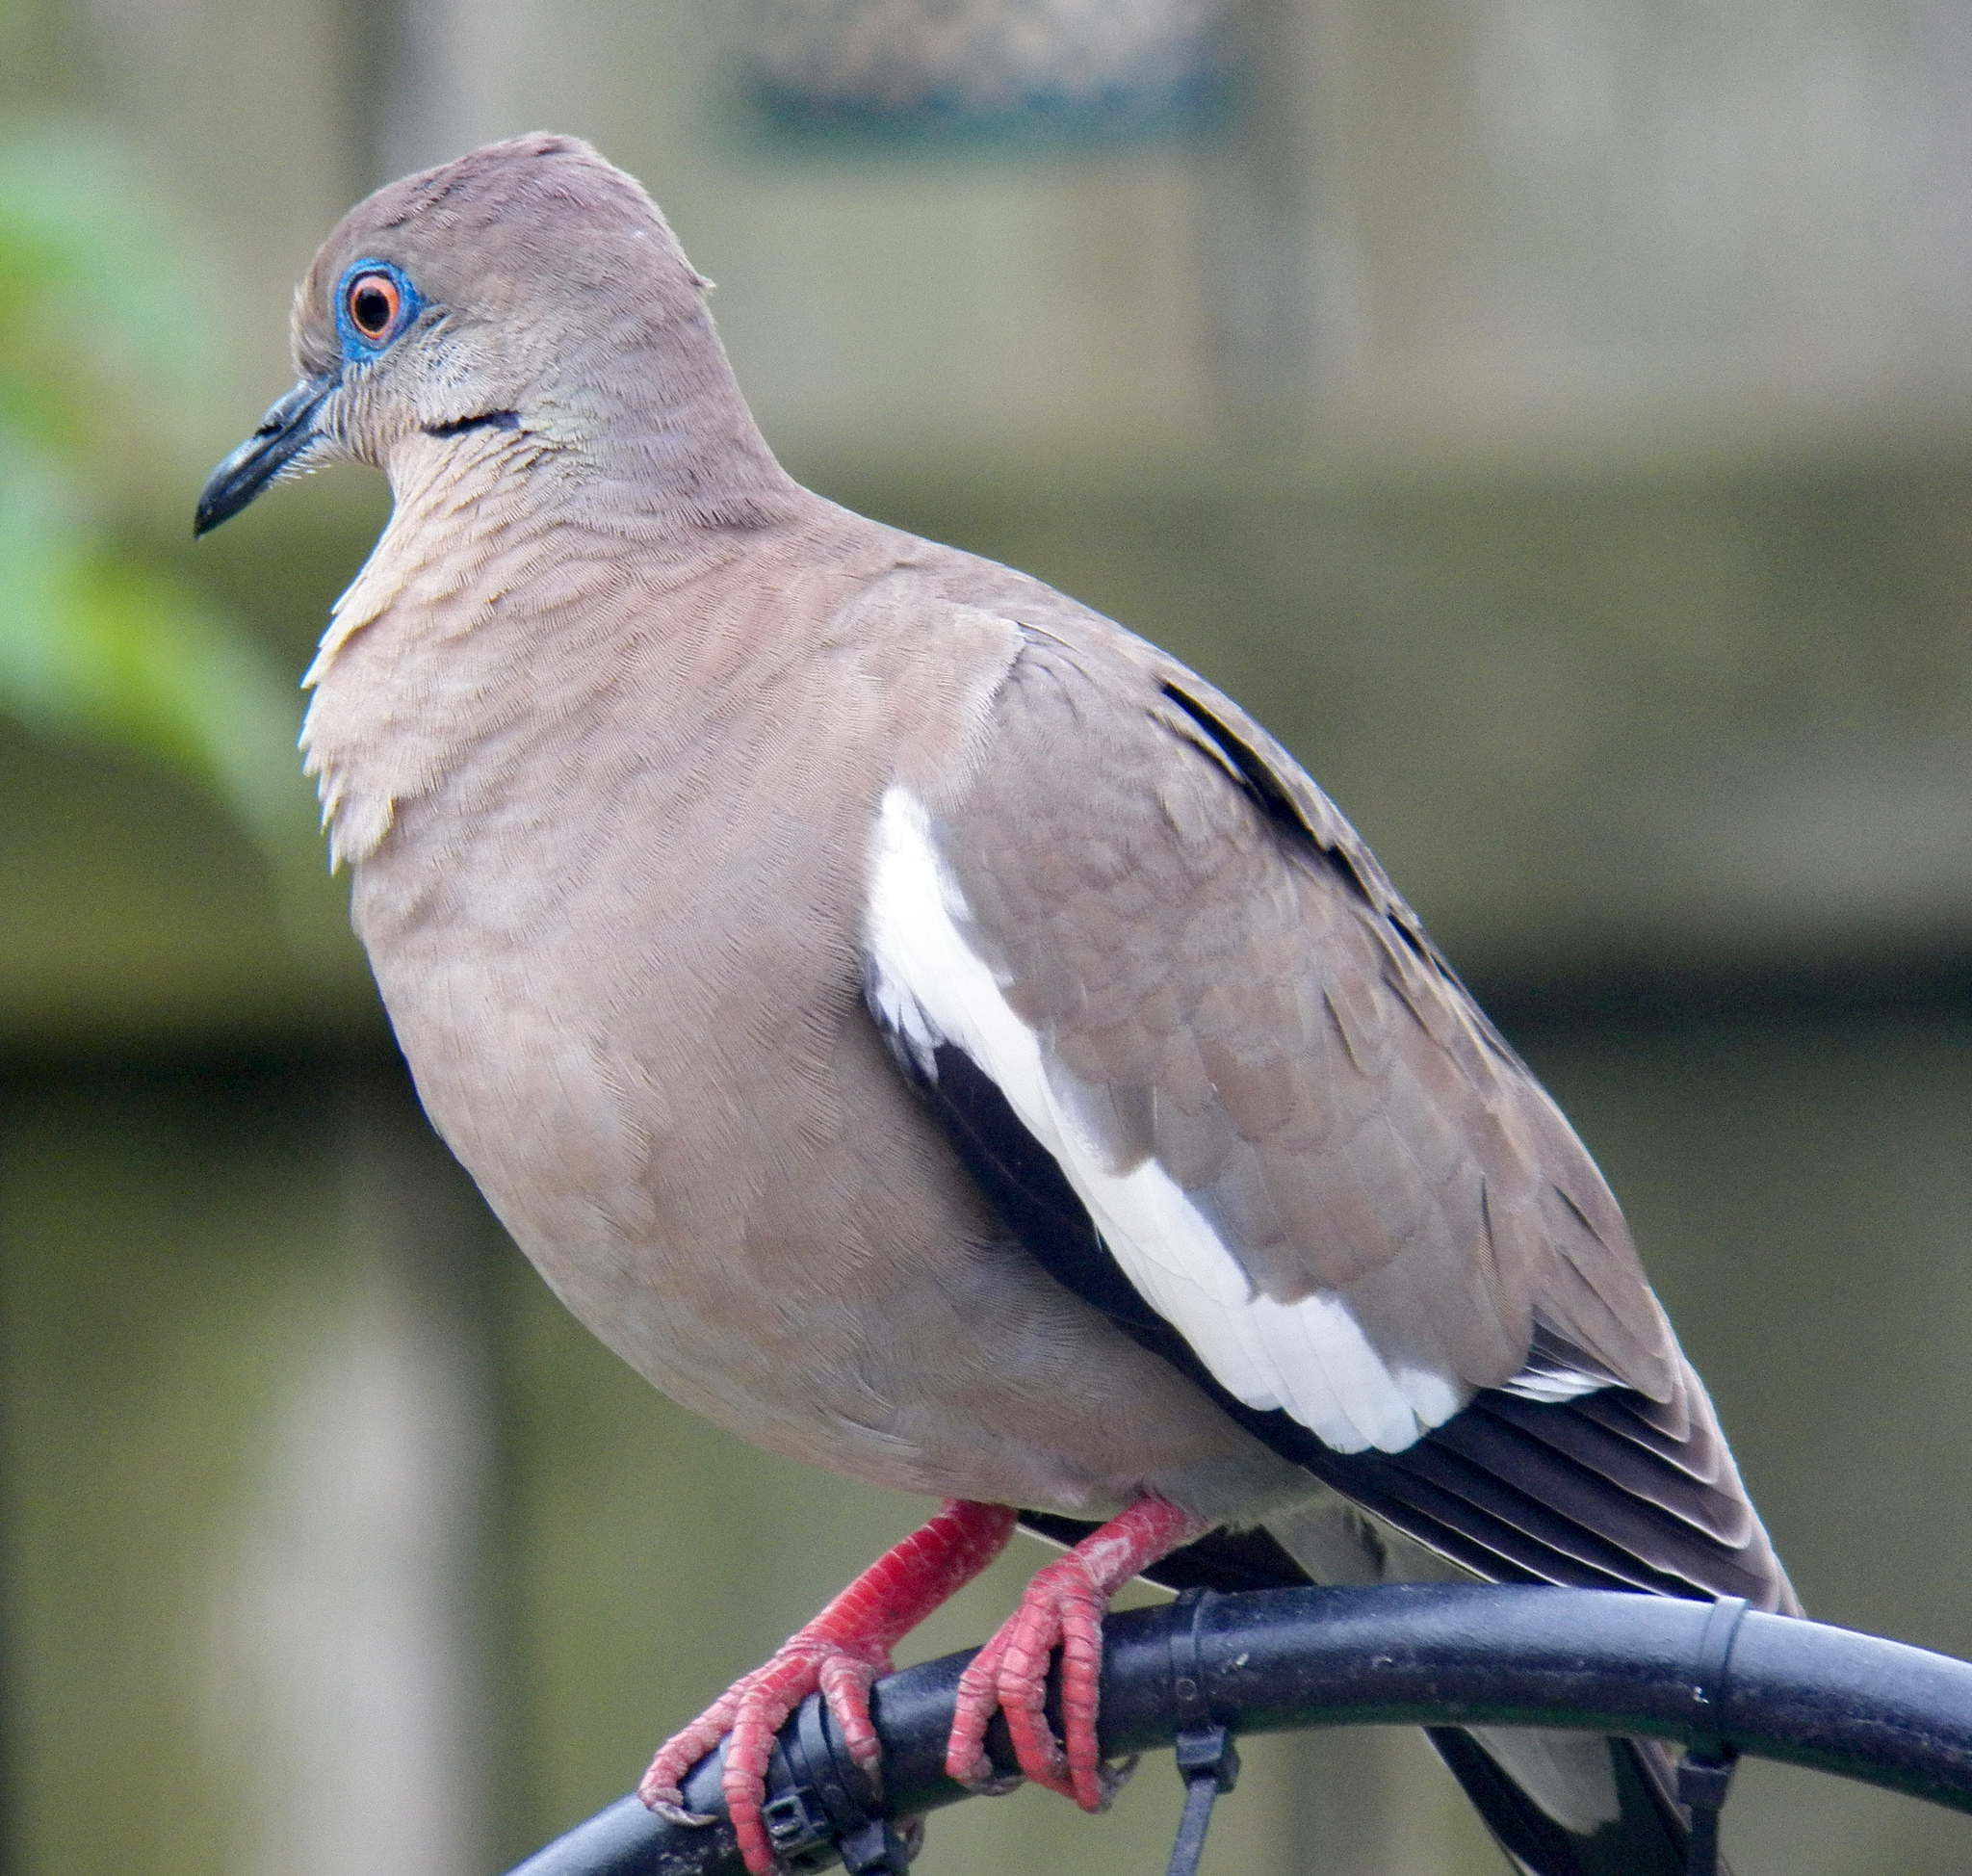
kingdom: Animalia
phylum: Chordata
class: Aves
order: Columbiformes
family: Columbidae
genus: Zenaida
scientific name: Zenaida asiatica
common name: White-winged dove
